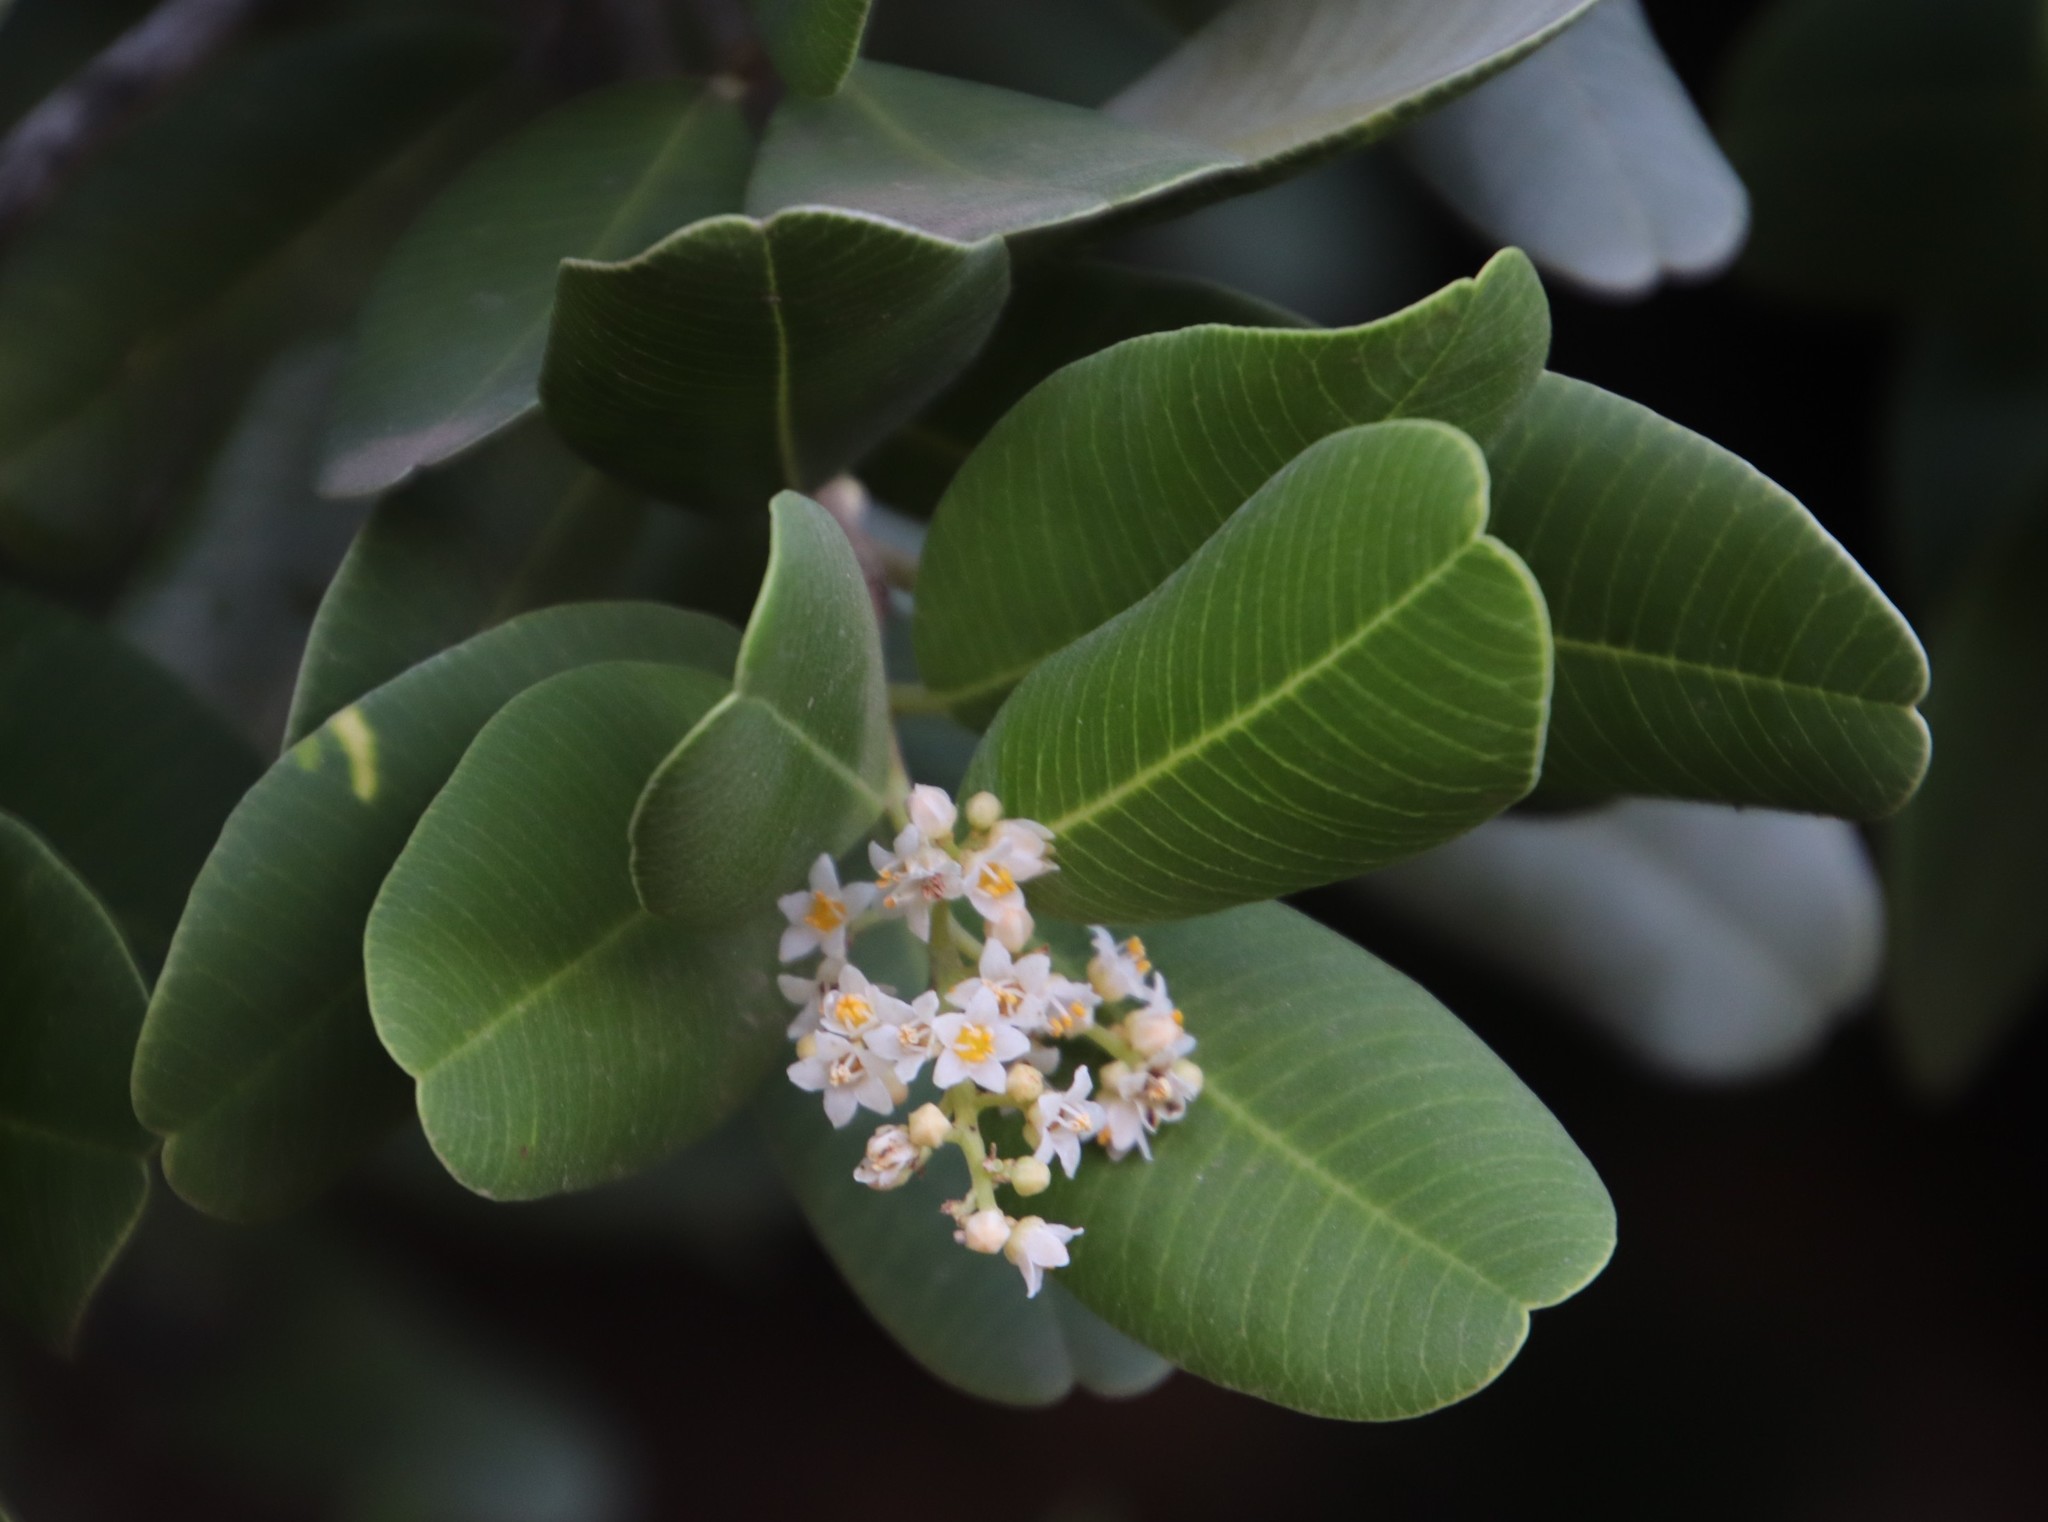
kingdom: Plantae
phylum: Tracheophyta
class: Magnoliopsida
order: Sapindales
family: Anacardiaceae
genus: Heeria
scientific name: Heeria argentea
